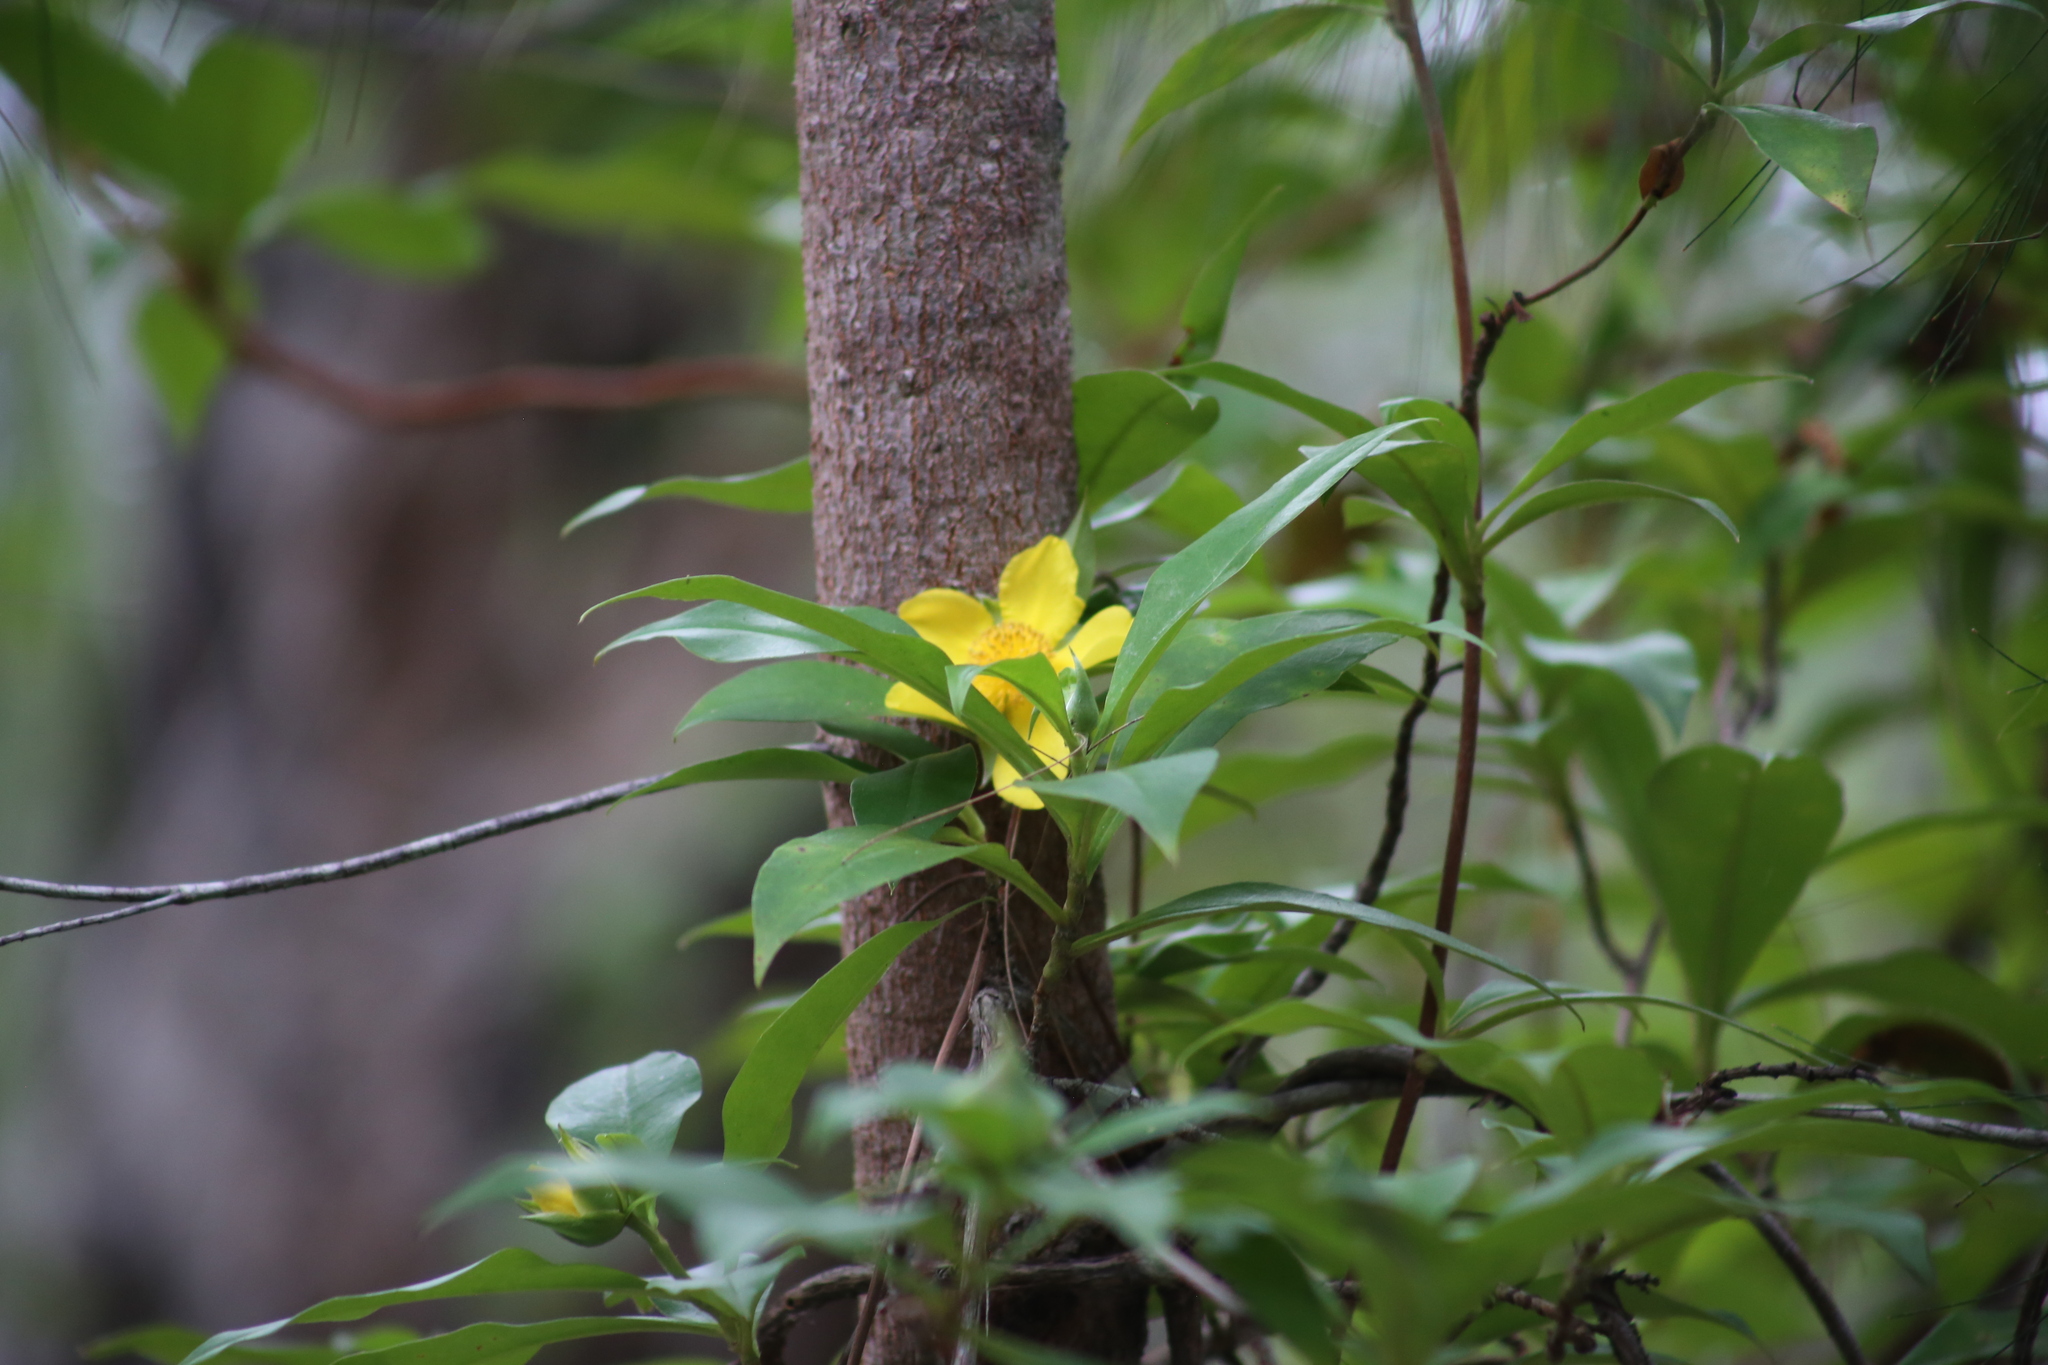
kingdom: Plantae
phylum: Tracheophyta
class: Magnoliopsida
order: Dilleniales
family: Dilleniaceae
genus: Hibbertia
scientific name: Hibbertia scandens
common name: Climbing guinea-flower
